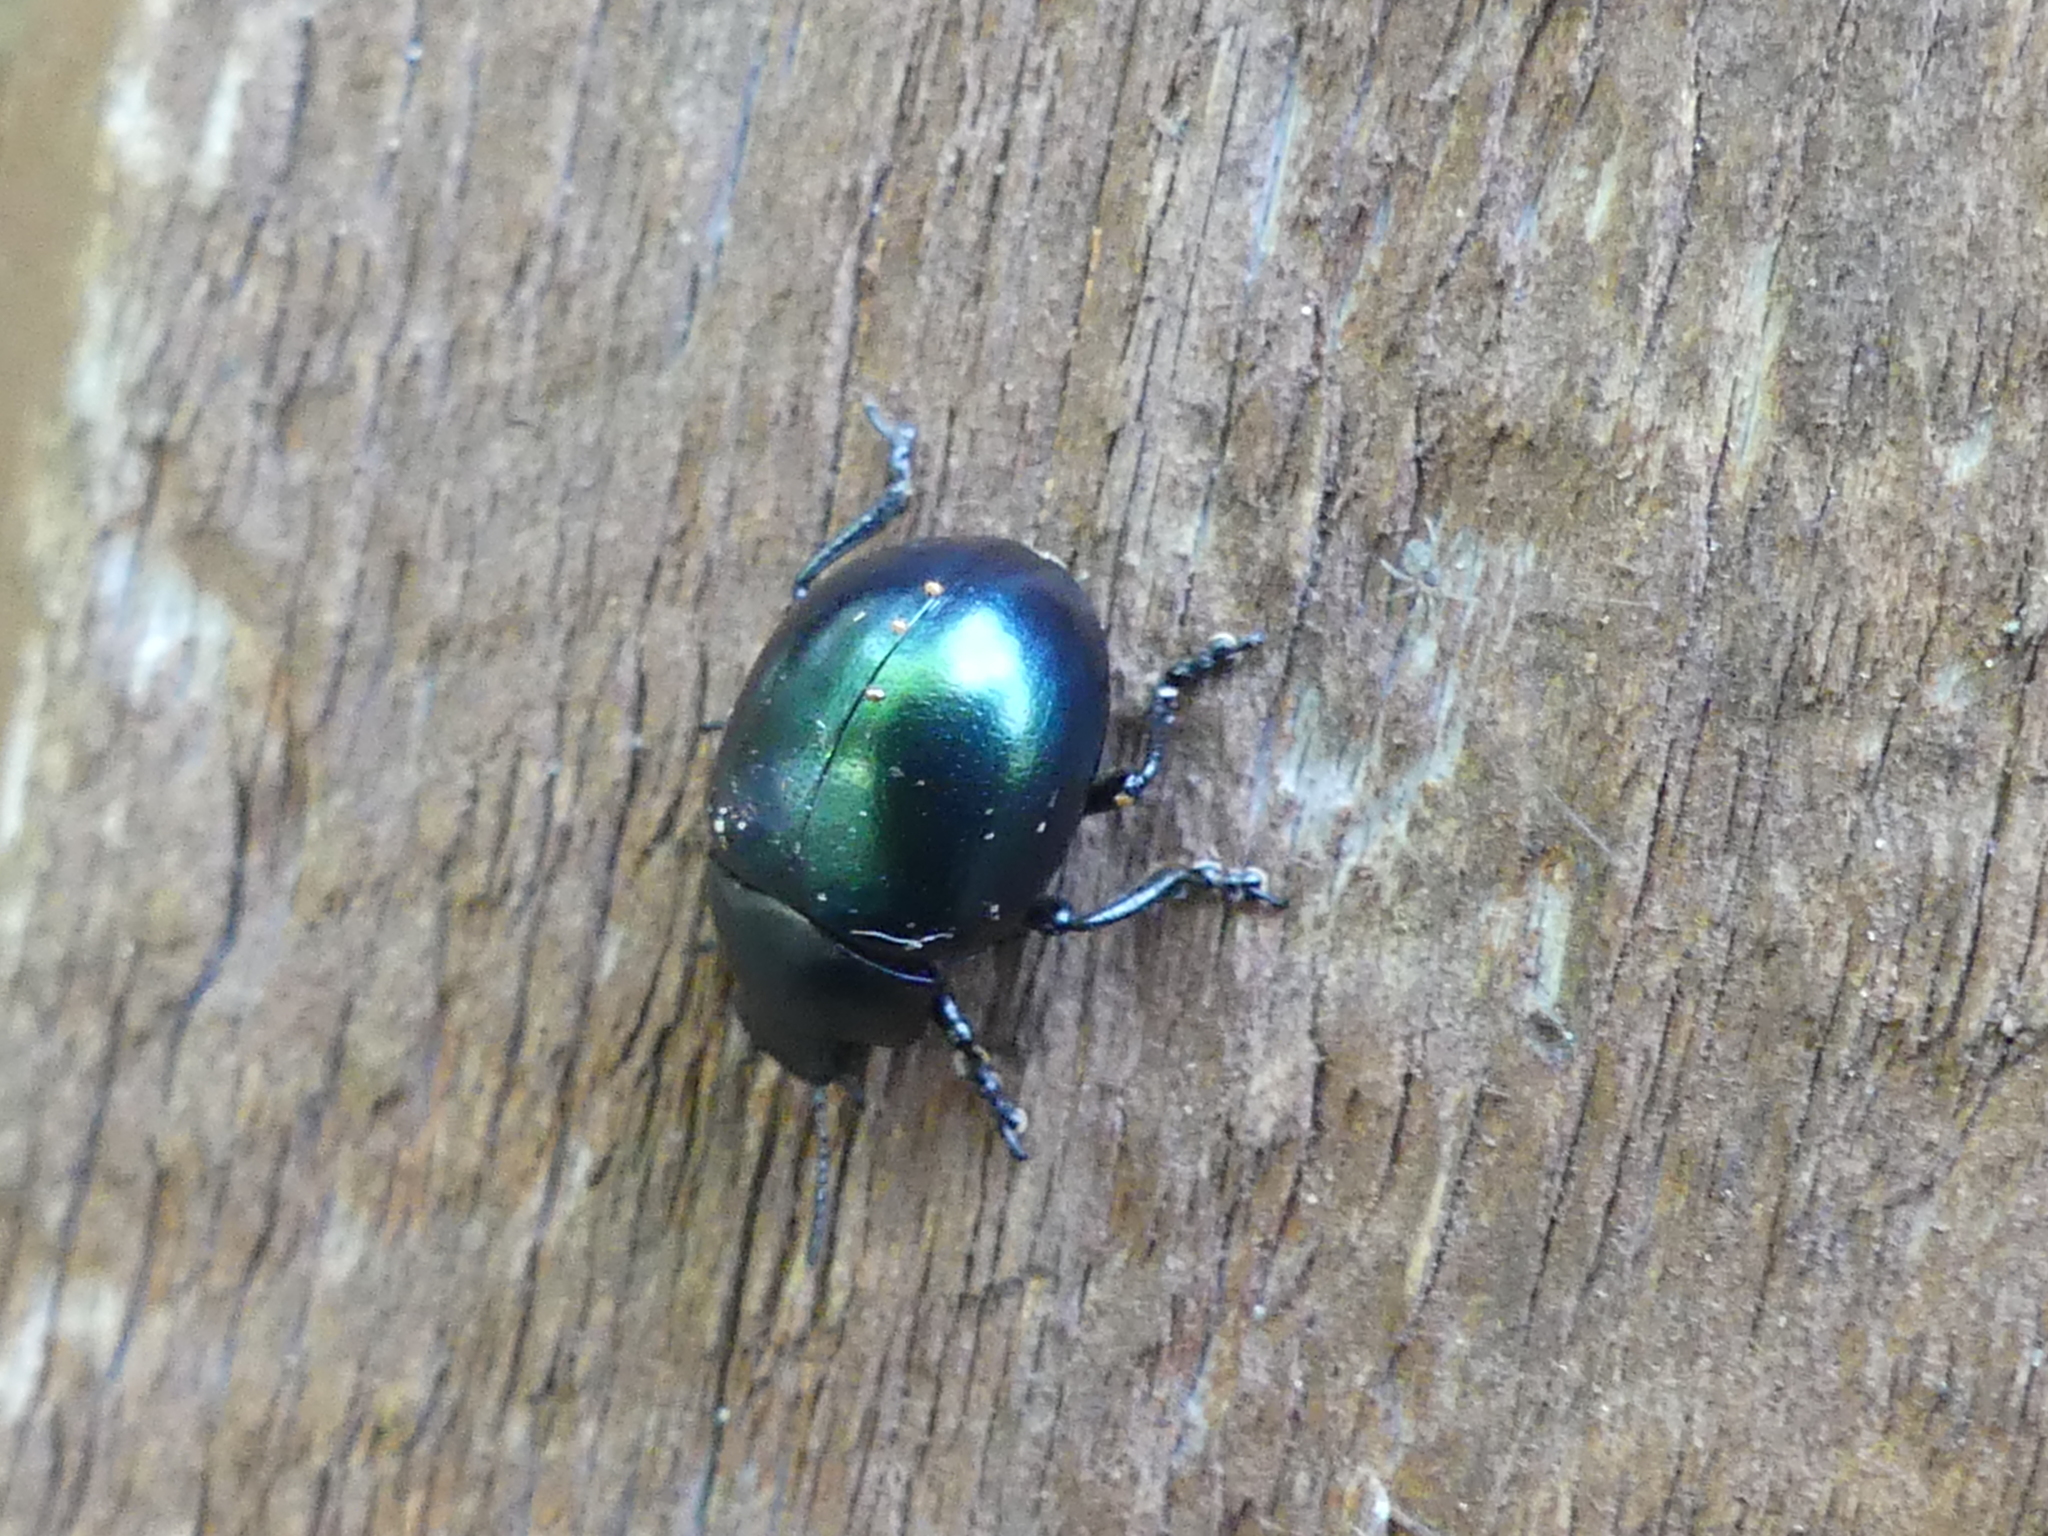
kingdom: Animalia
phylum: Arthropoda
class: Insecta
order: Coleoptera
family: Chrysomelidae
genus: Leptinotarsa
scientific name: Leptinotarsa haldemani
